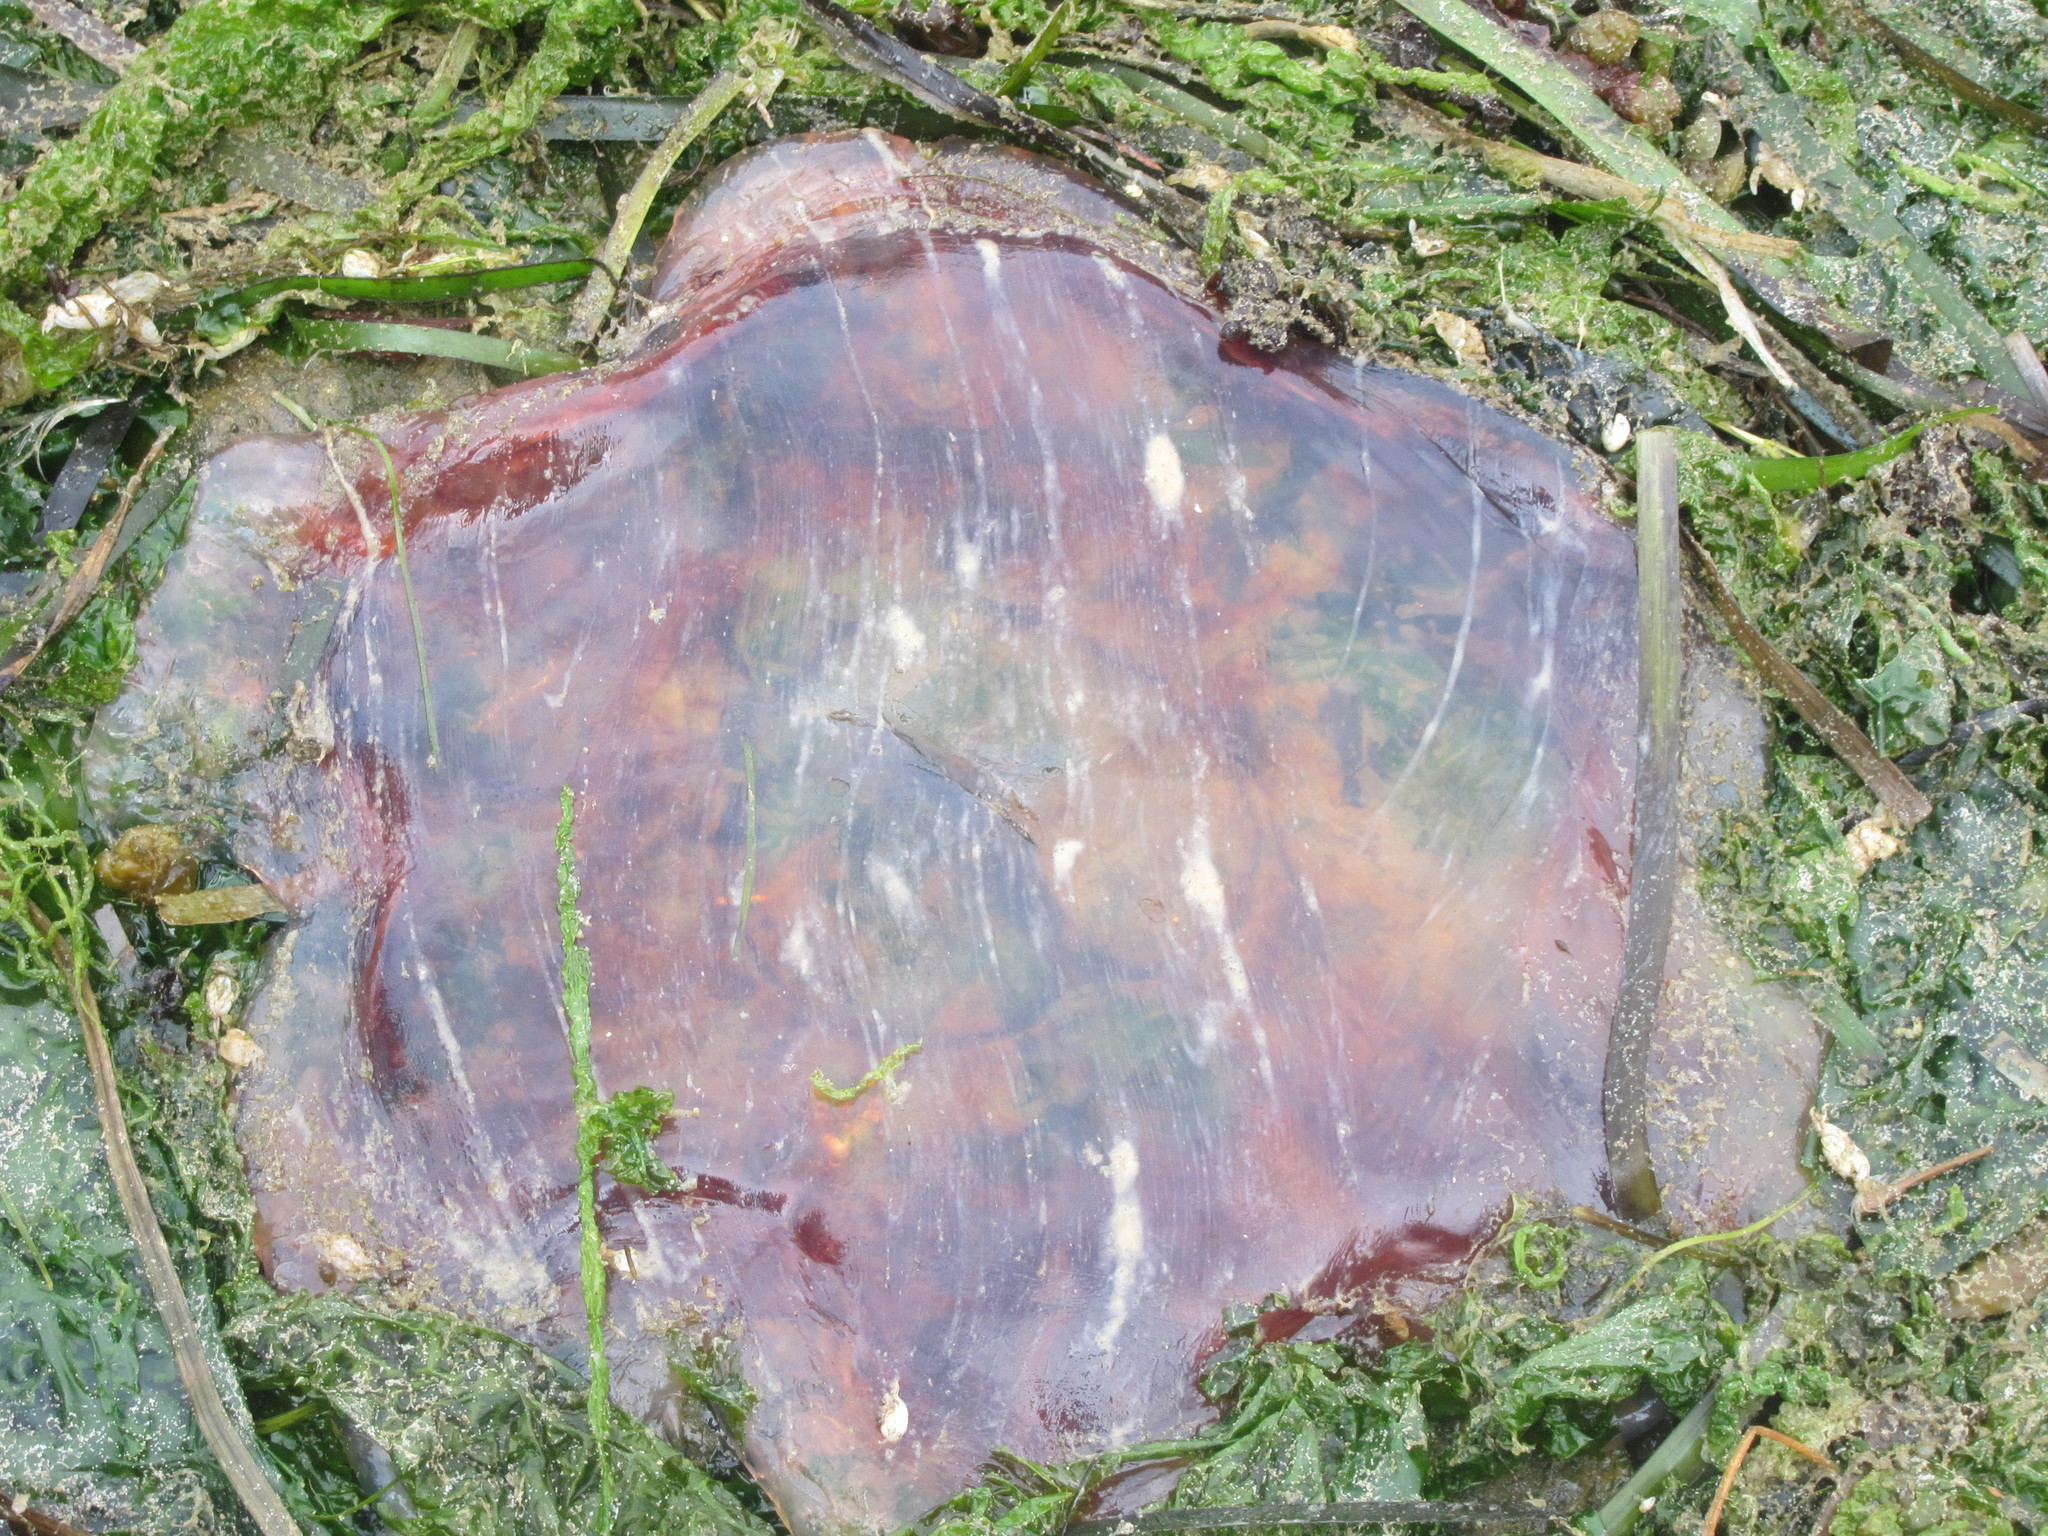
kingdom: Animalia
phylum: Cnidaria
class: Scyphozoa
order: Semaeostomeae
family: Cyaneidae
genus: Cyanea
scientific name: Cyanea ferruginea
